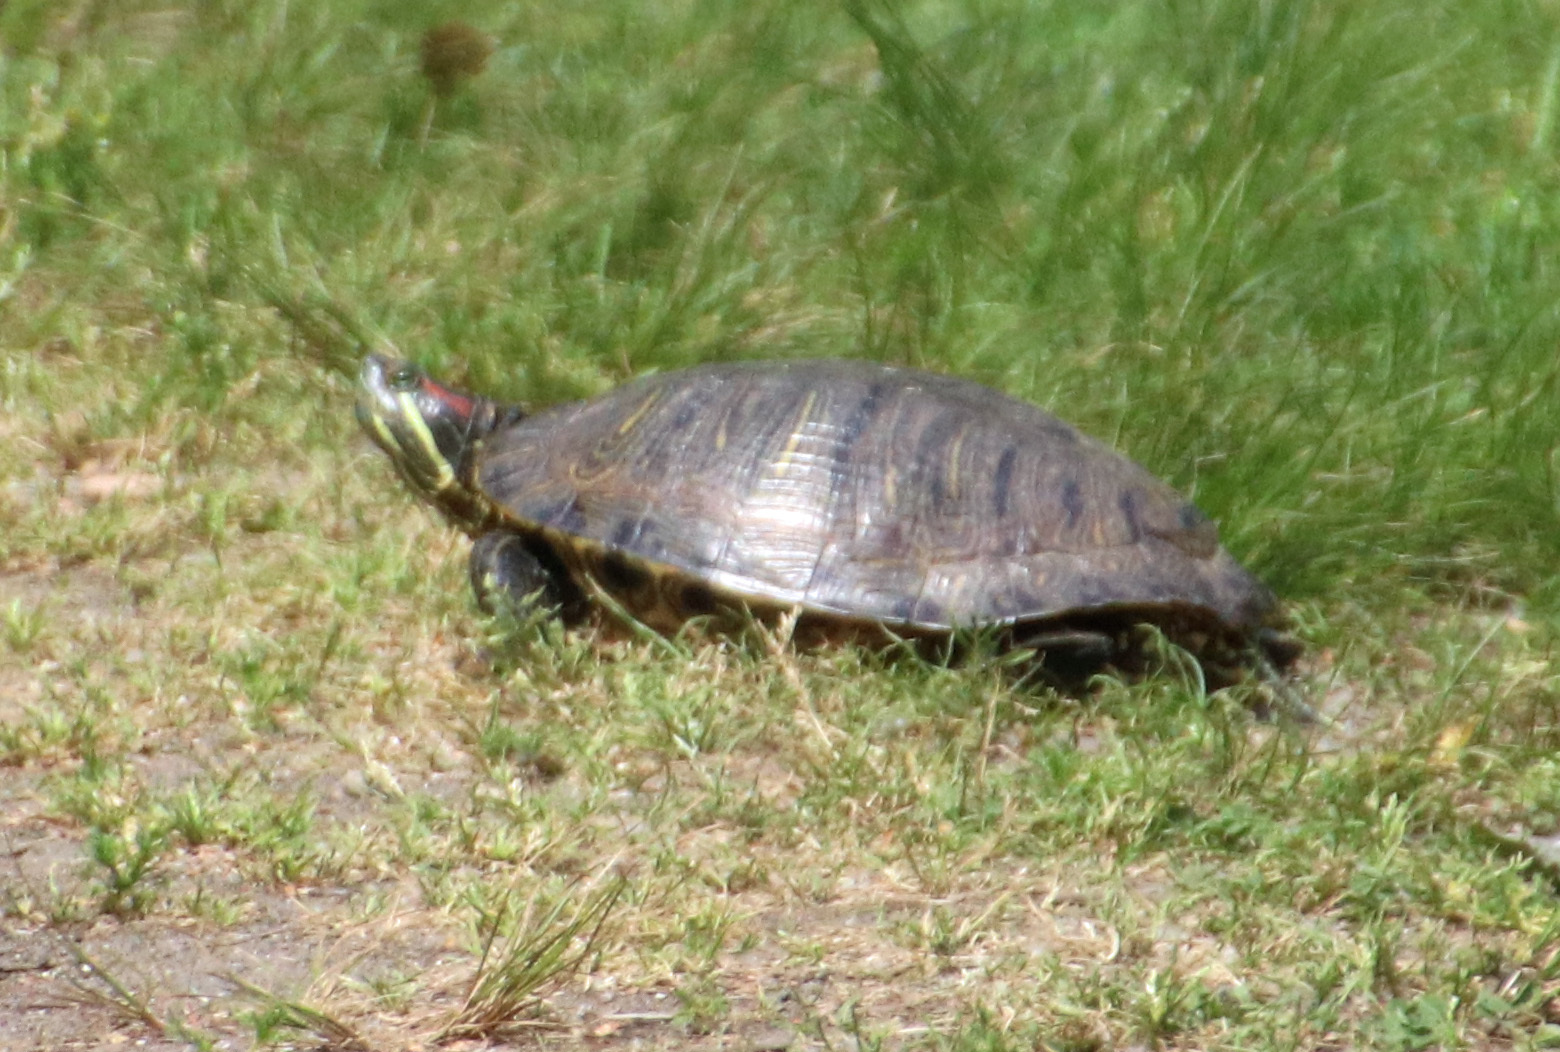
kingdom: Animalia
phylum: Chordata
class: Testudines
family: Emydidae
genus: Trachemys
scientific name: Trachemys scripta
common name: Slider
